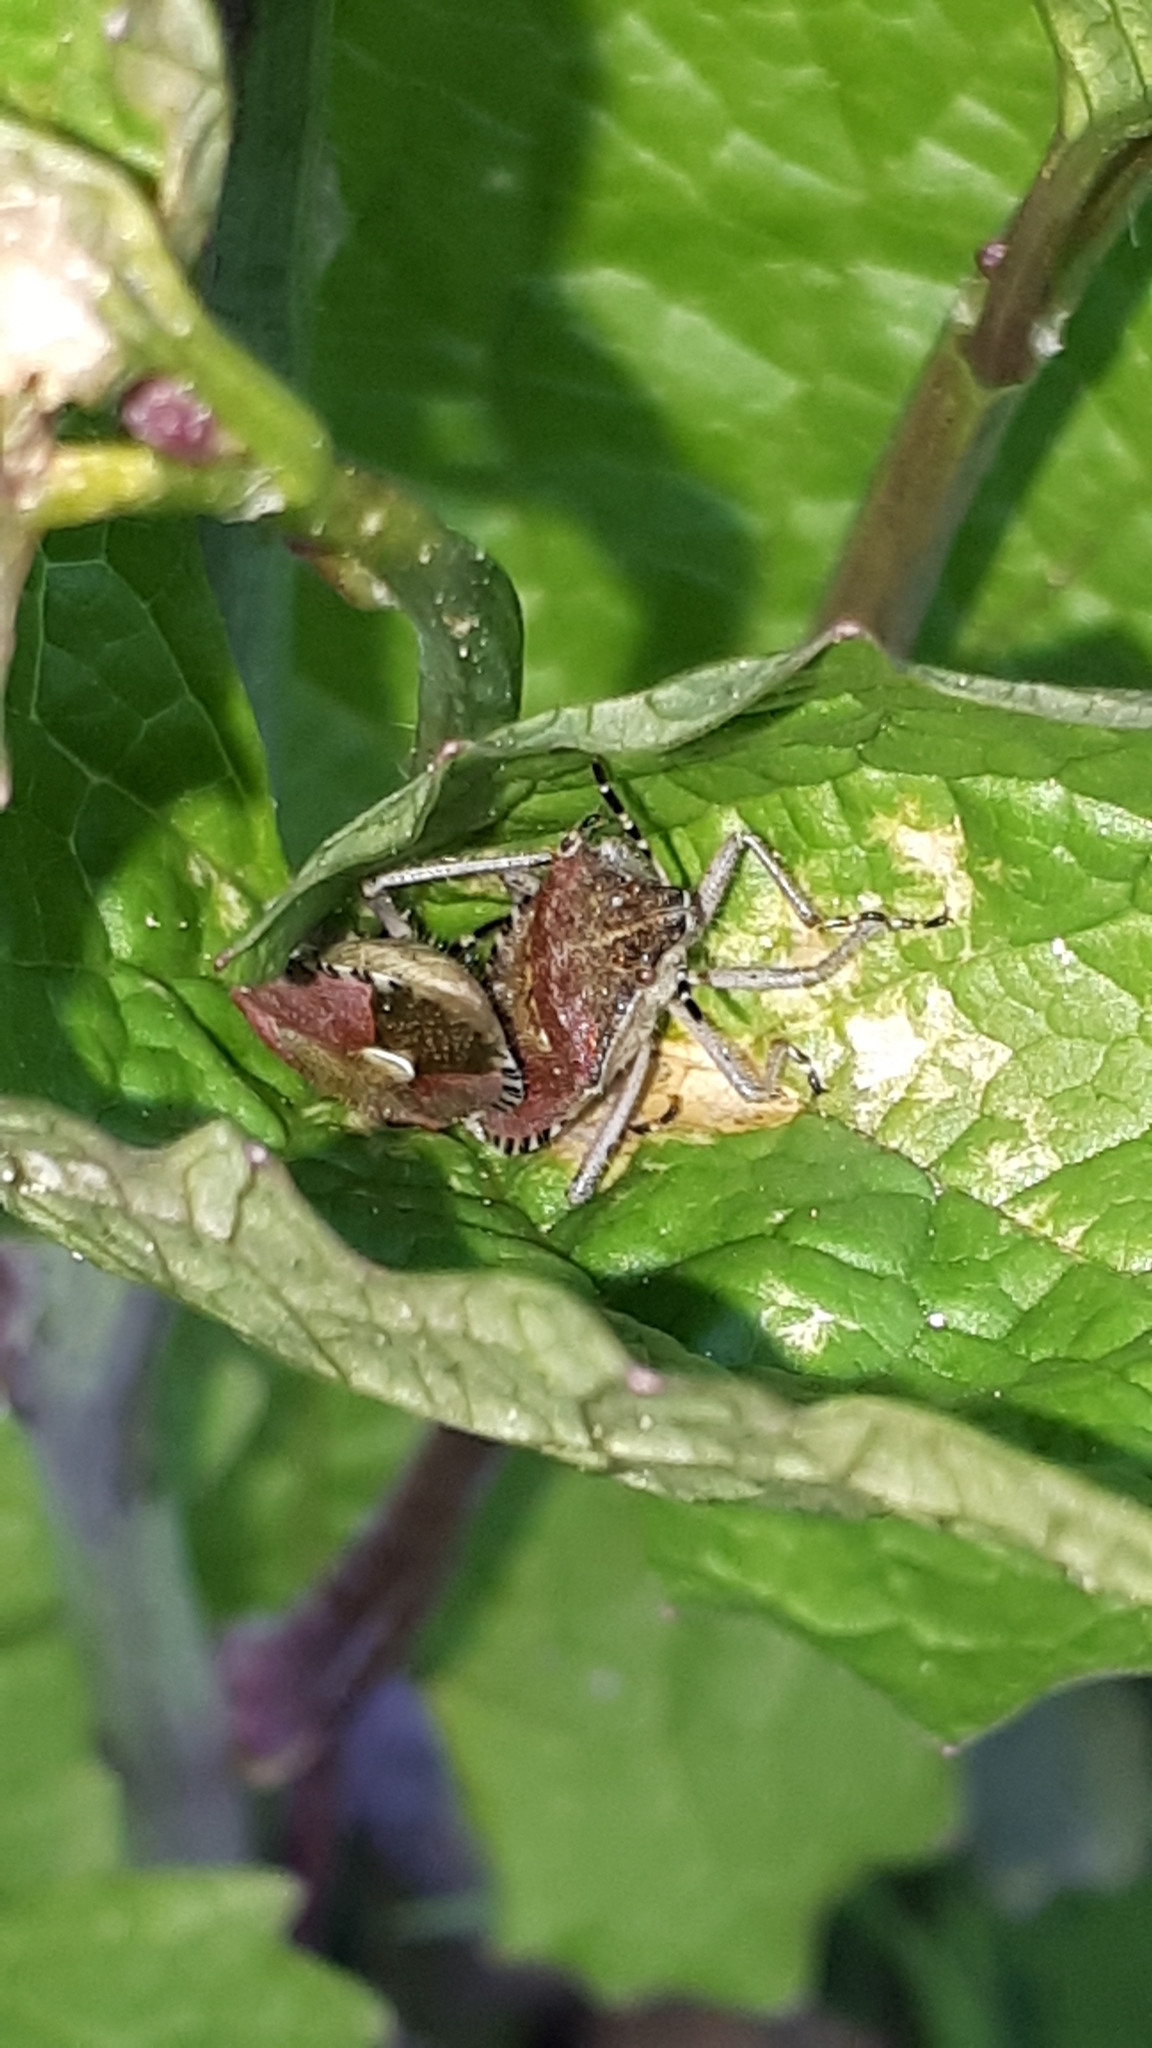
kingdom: Animalia
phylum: Arthropoda
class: Insecta
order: Hemiptera
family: Pentatomidae
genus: Dolycoris
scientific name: Dolycoris baccarum
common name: Sloe bug
